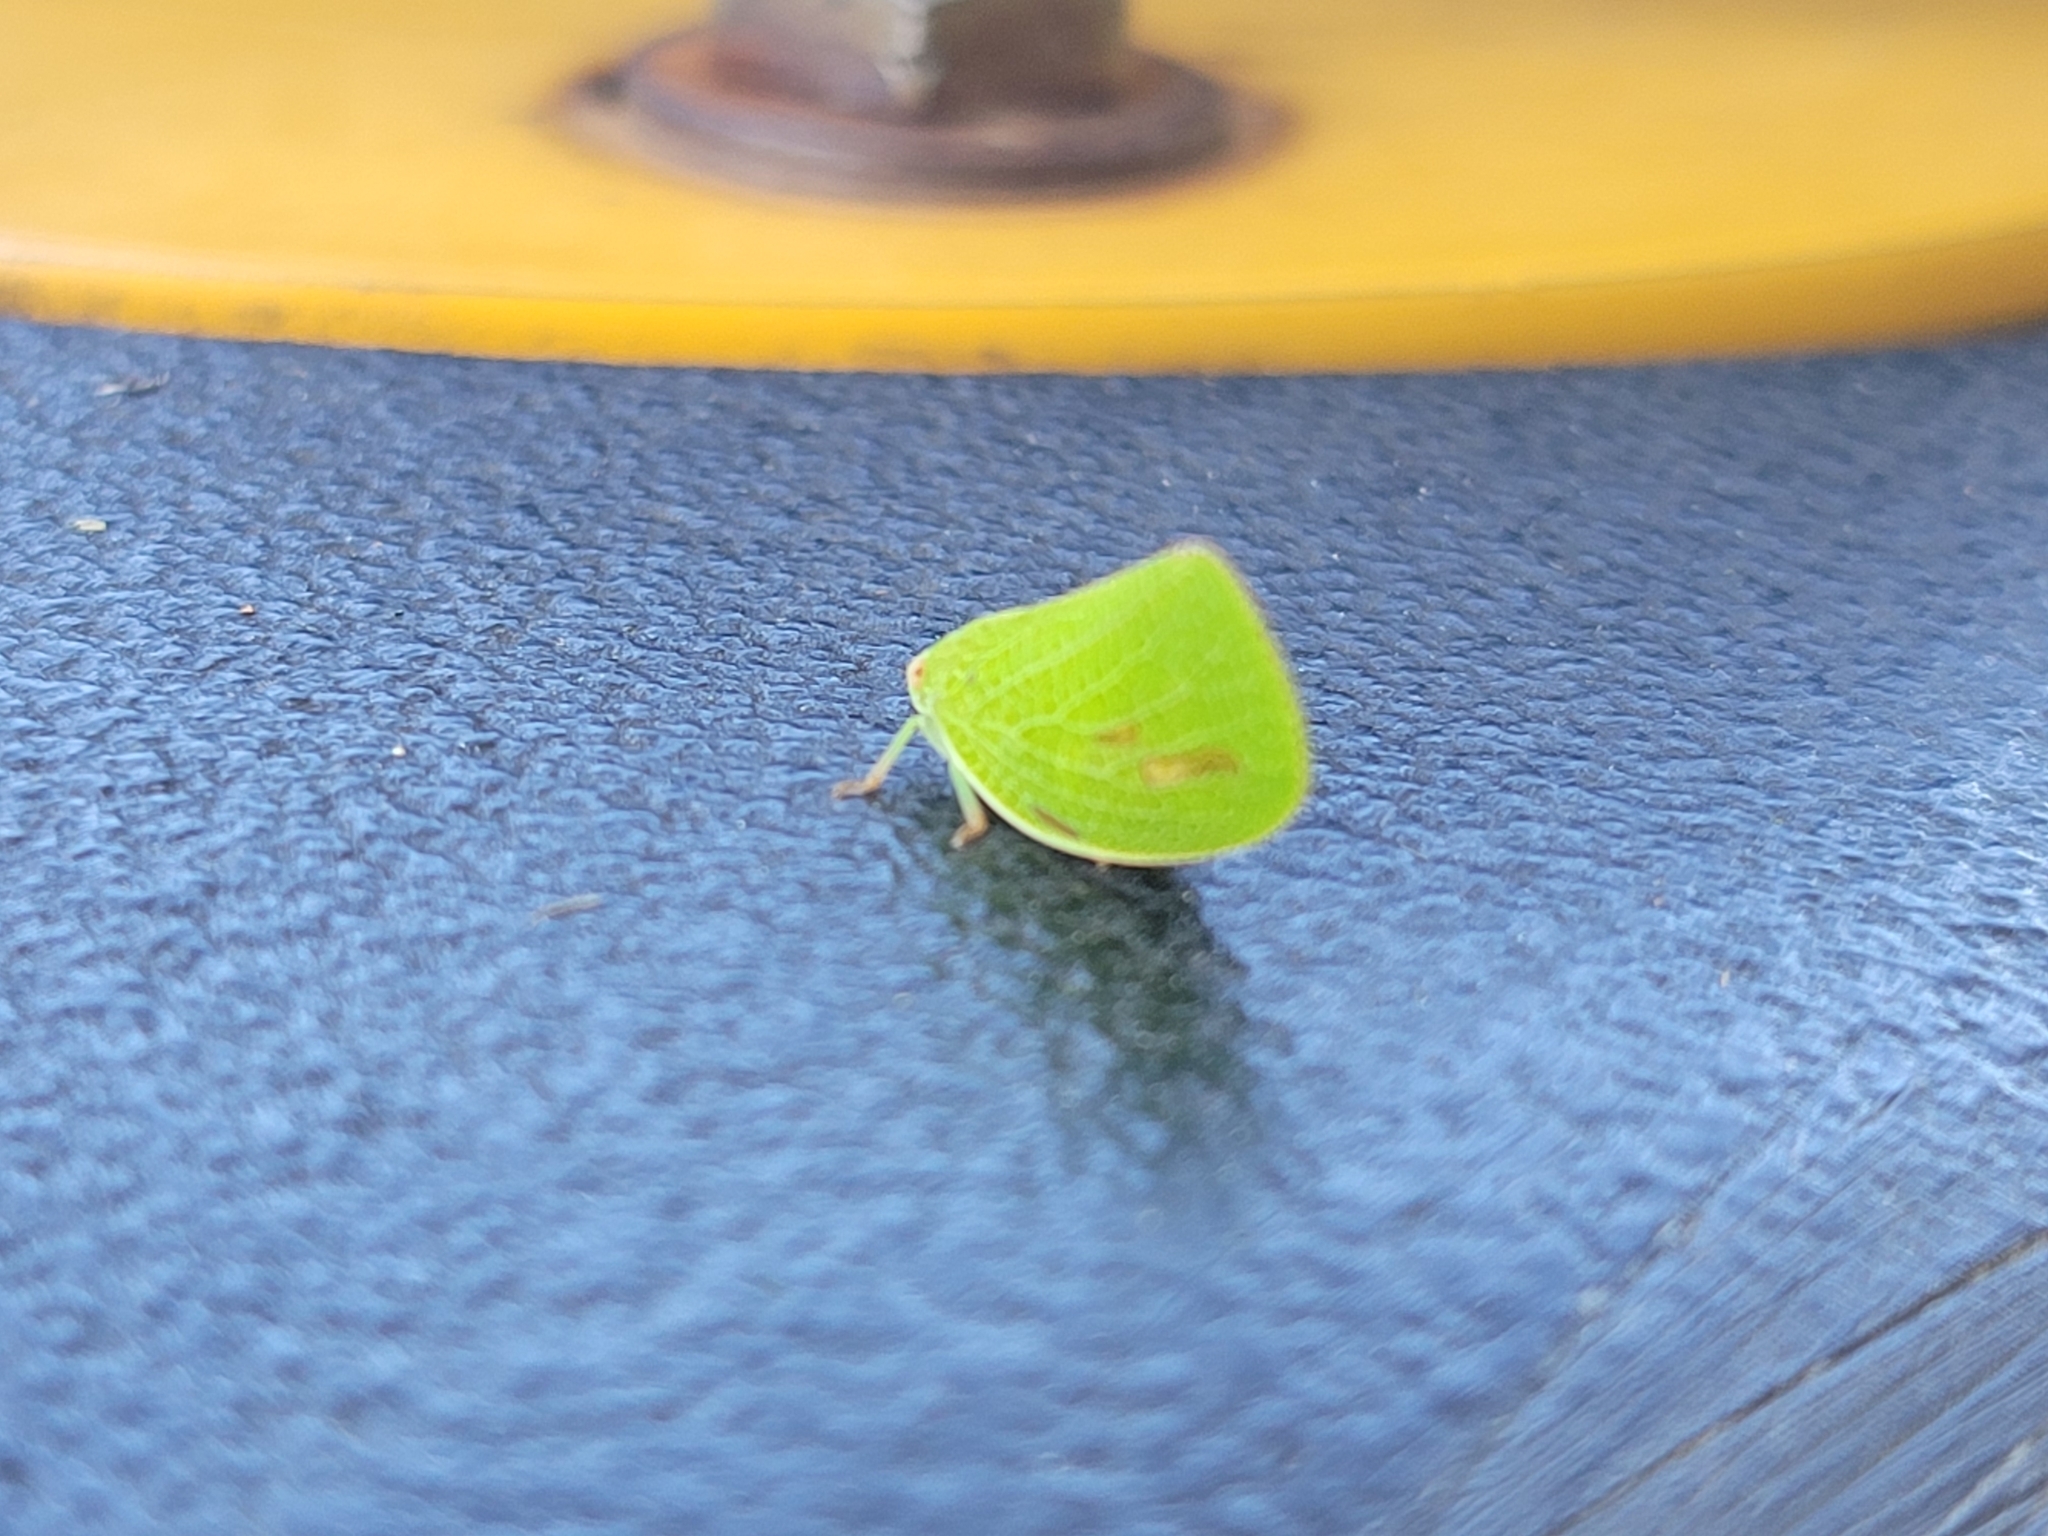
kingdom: Animalia
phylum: Arthropoda
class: Insecta
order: Hemiptera
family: Acanaloniidae
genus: Acanalonia
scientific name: Acanalonia conica
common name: Green cone-headed planthopper
